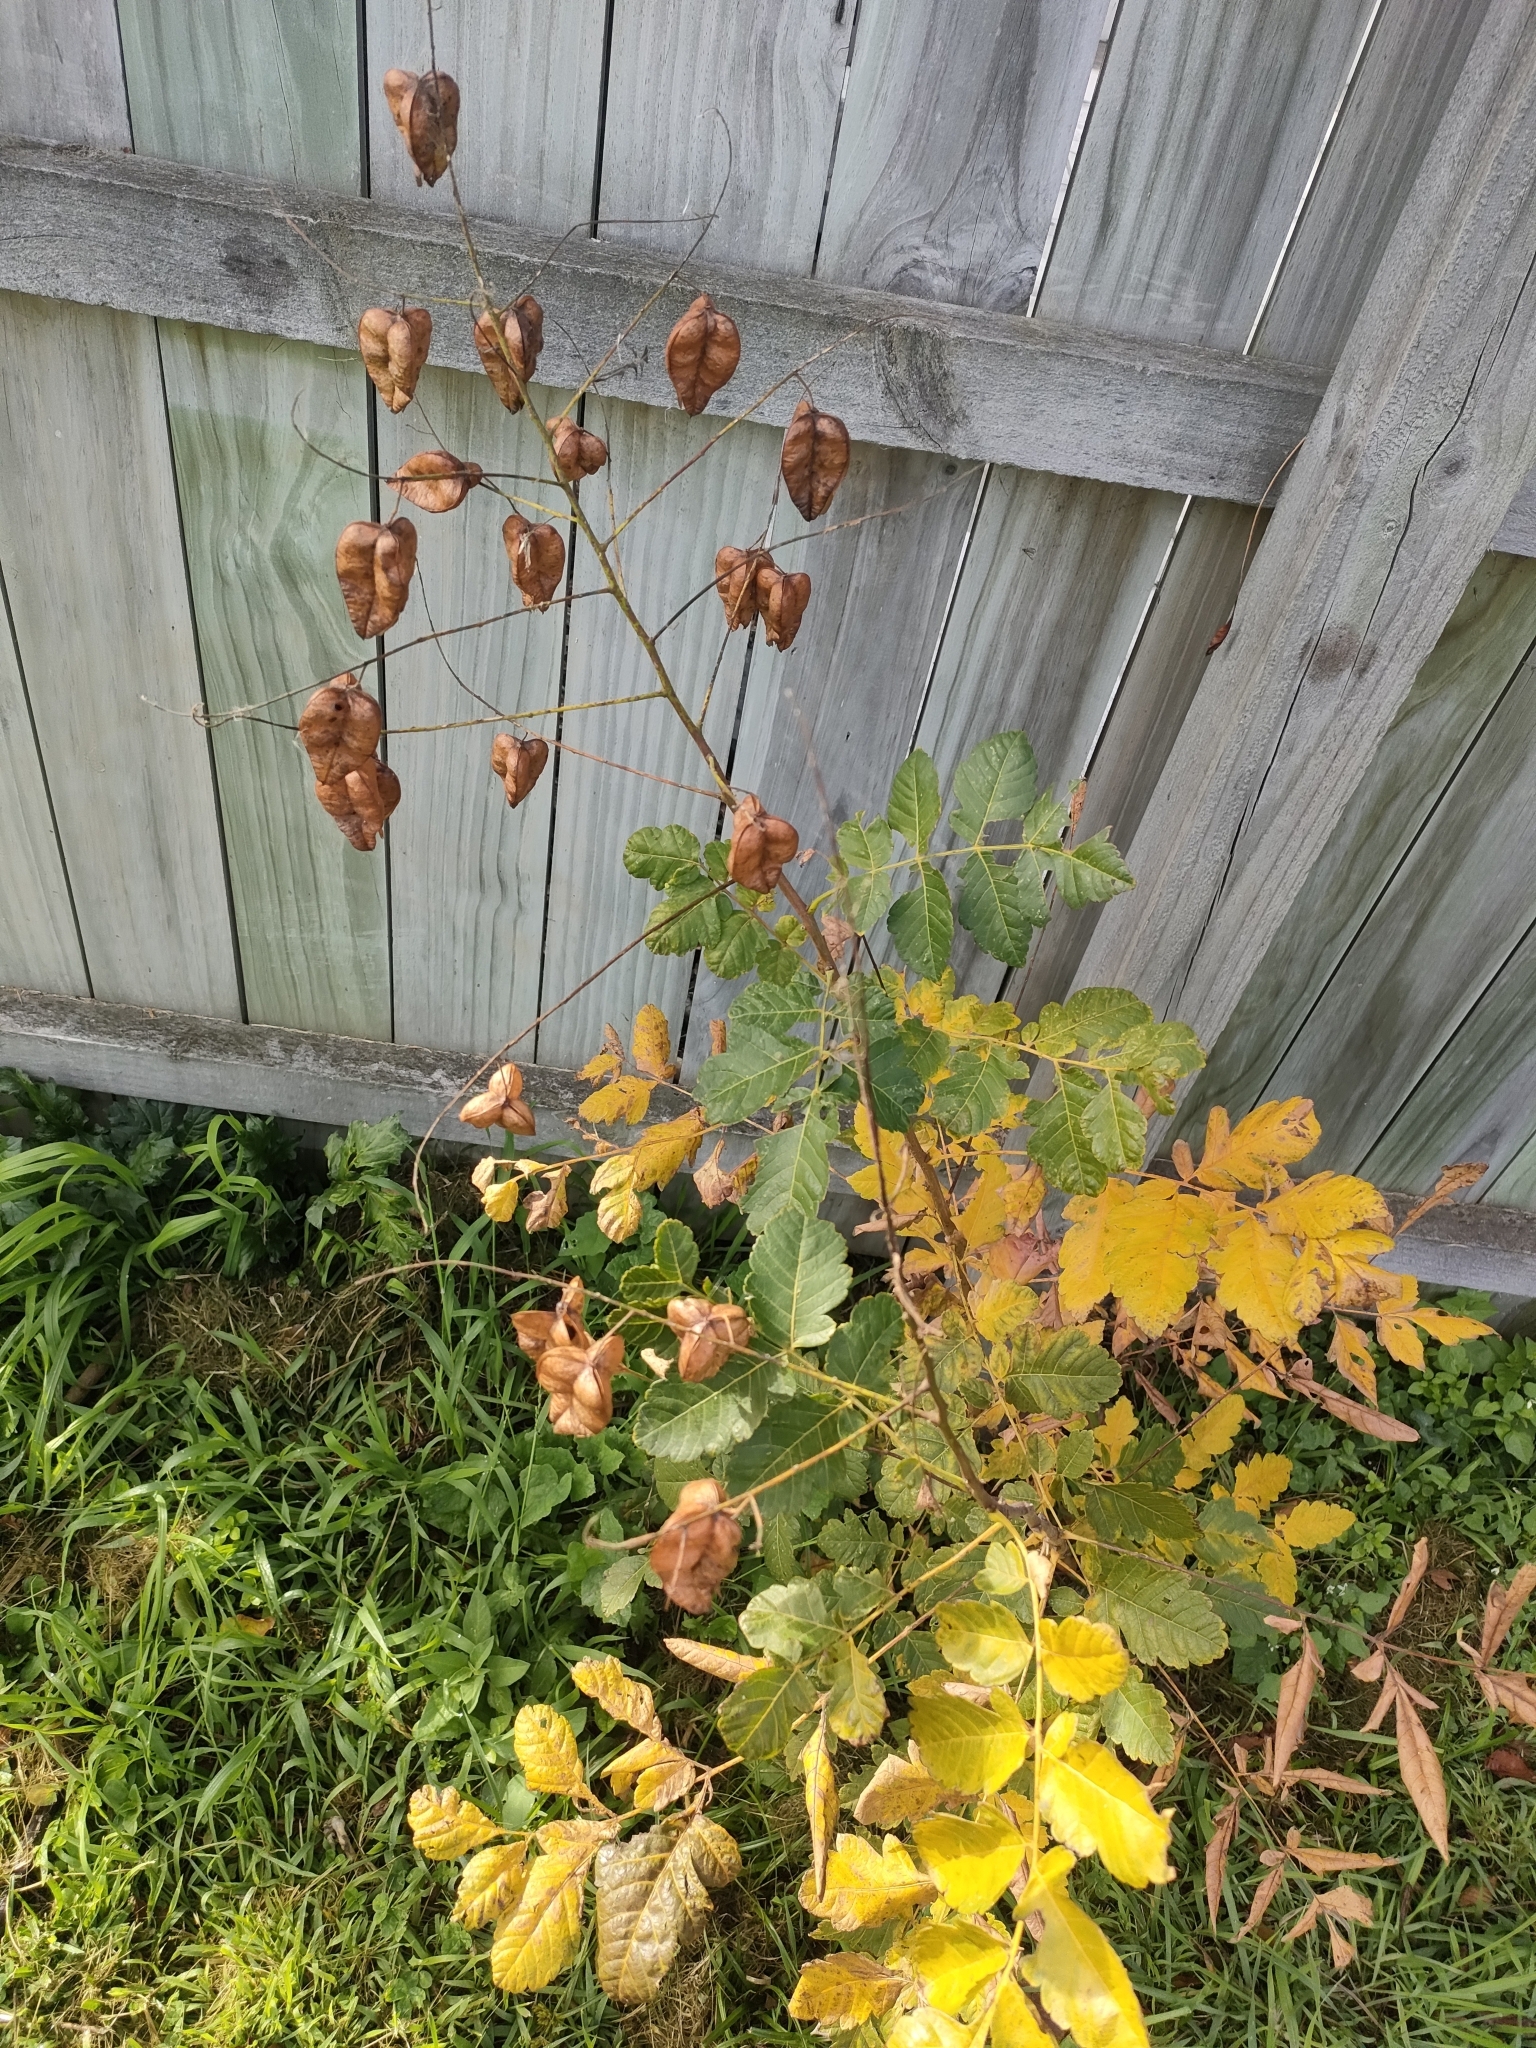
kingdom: Plantae
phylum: Tracheophyta
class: Magnoliopsida
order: Sapindales
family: Sapindaceae
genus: Koelreuteria
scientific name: Koelreuteria paniculata
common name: Pride-of-india
